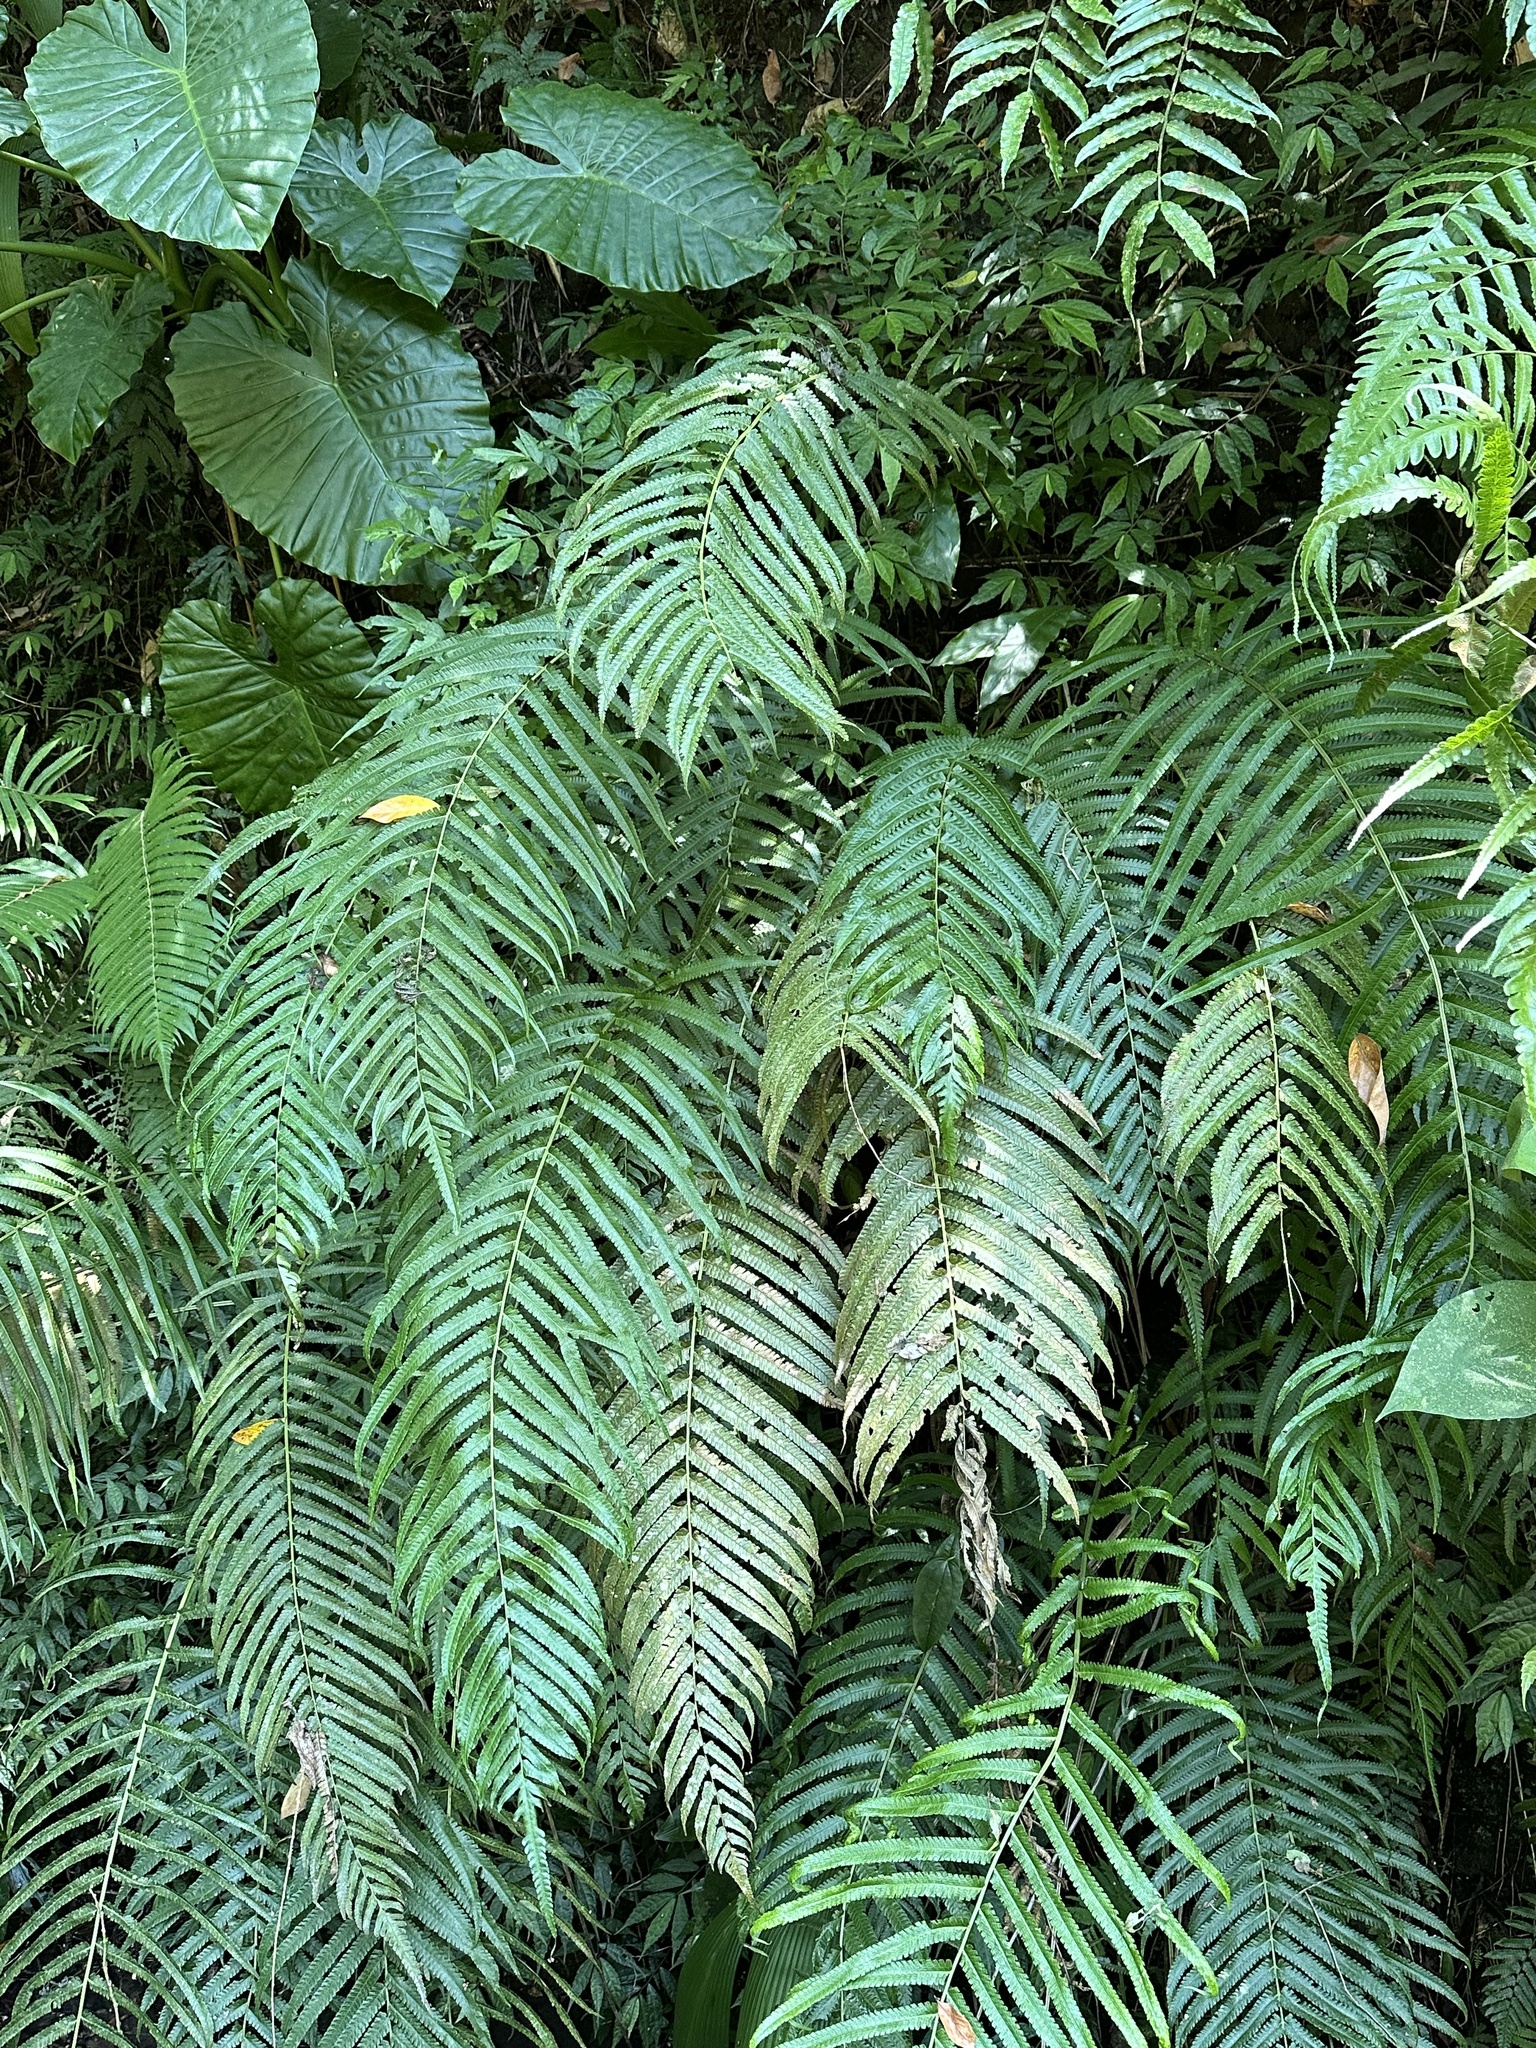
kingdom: Plantae
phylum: Tracheophyta
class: Polypodiopsida
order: Polypodiales
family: Thelypteridaceae
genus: Reholttumia
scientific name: Reholttumia truncata
